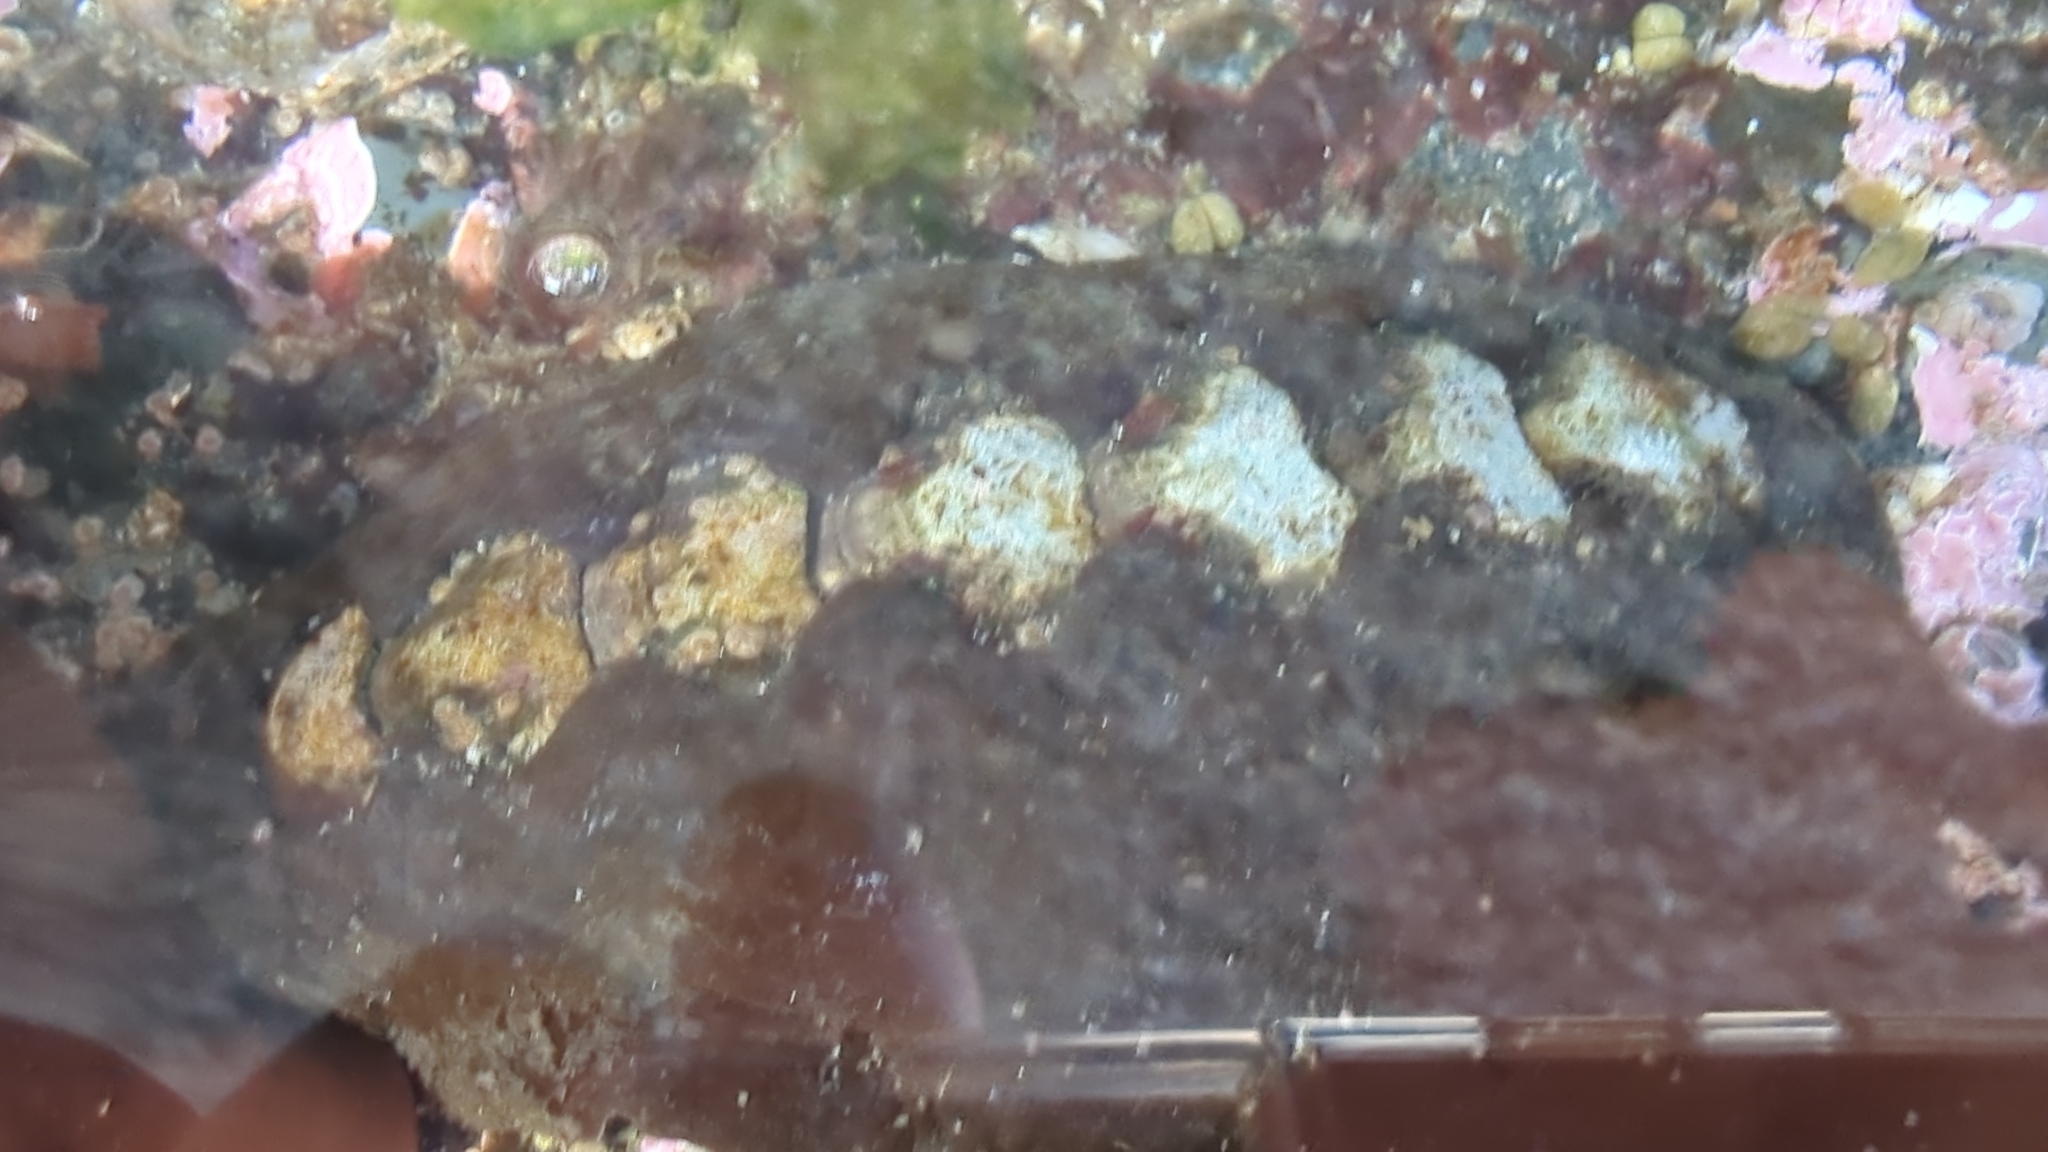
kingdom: Animalia
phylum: Mollusca
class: Polyplacophora
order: Chitonida
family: Mopaliidae
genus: Katharina
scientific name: Katharina tunicata
